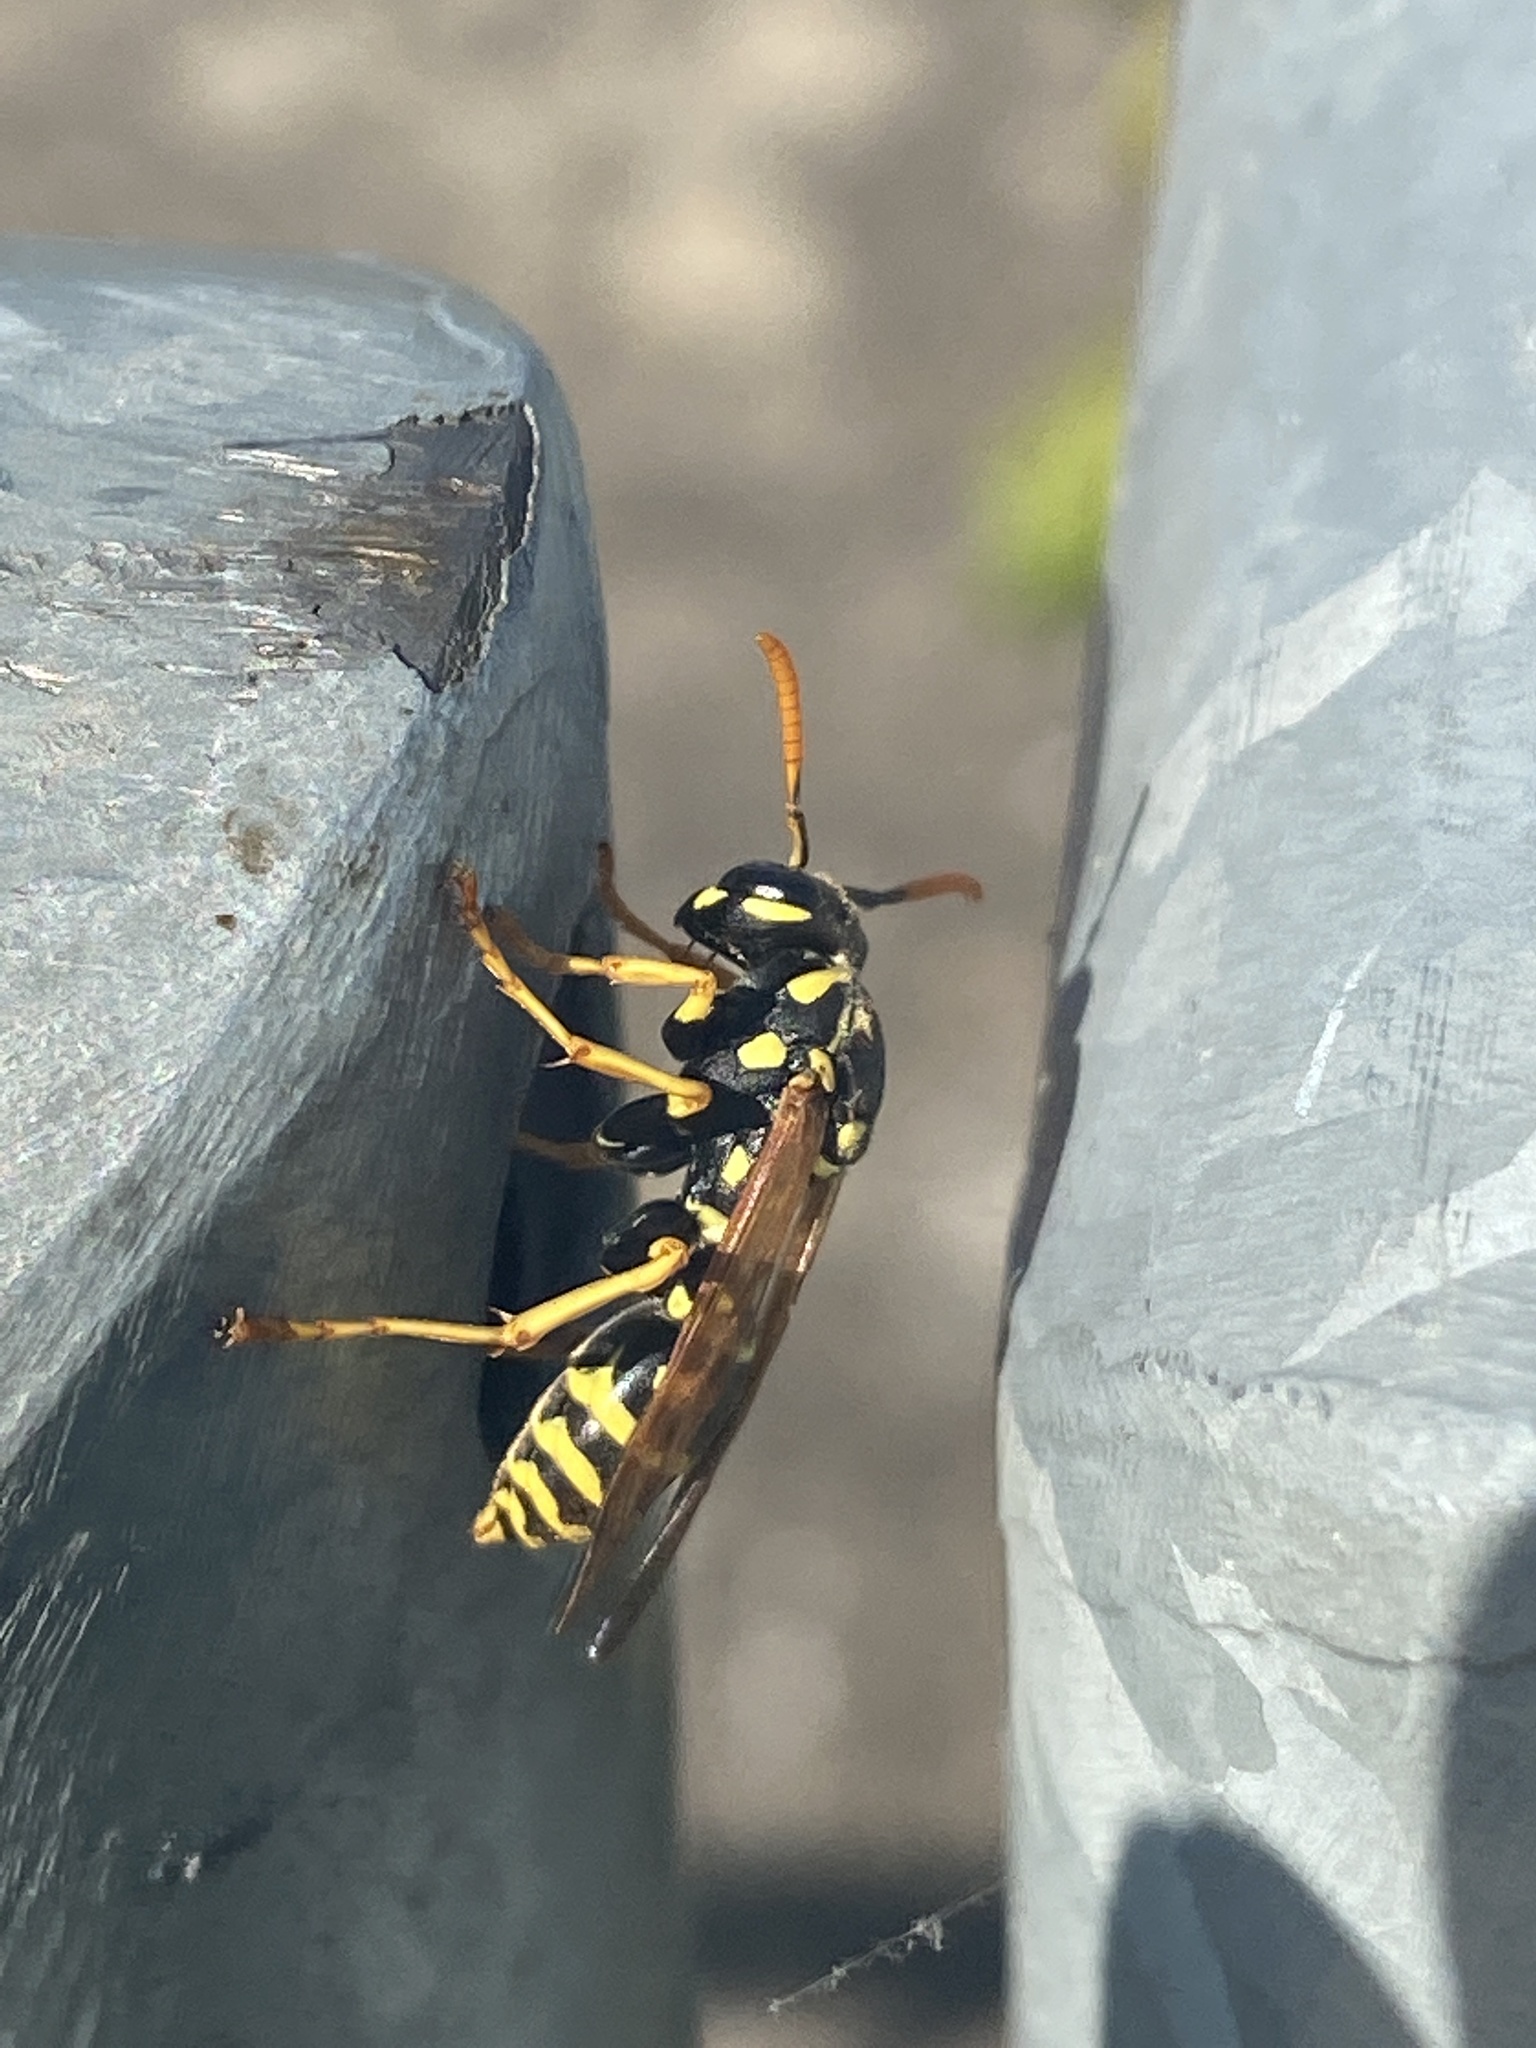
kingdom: Animalia
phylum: Arthropoda
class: Insecta
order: Hymenoptera
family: Eumenidae
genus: Polistes
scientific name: Polistes dominula
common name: Paper wasp
